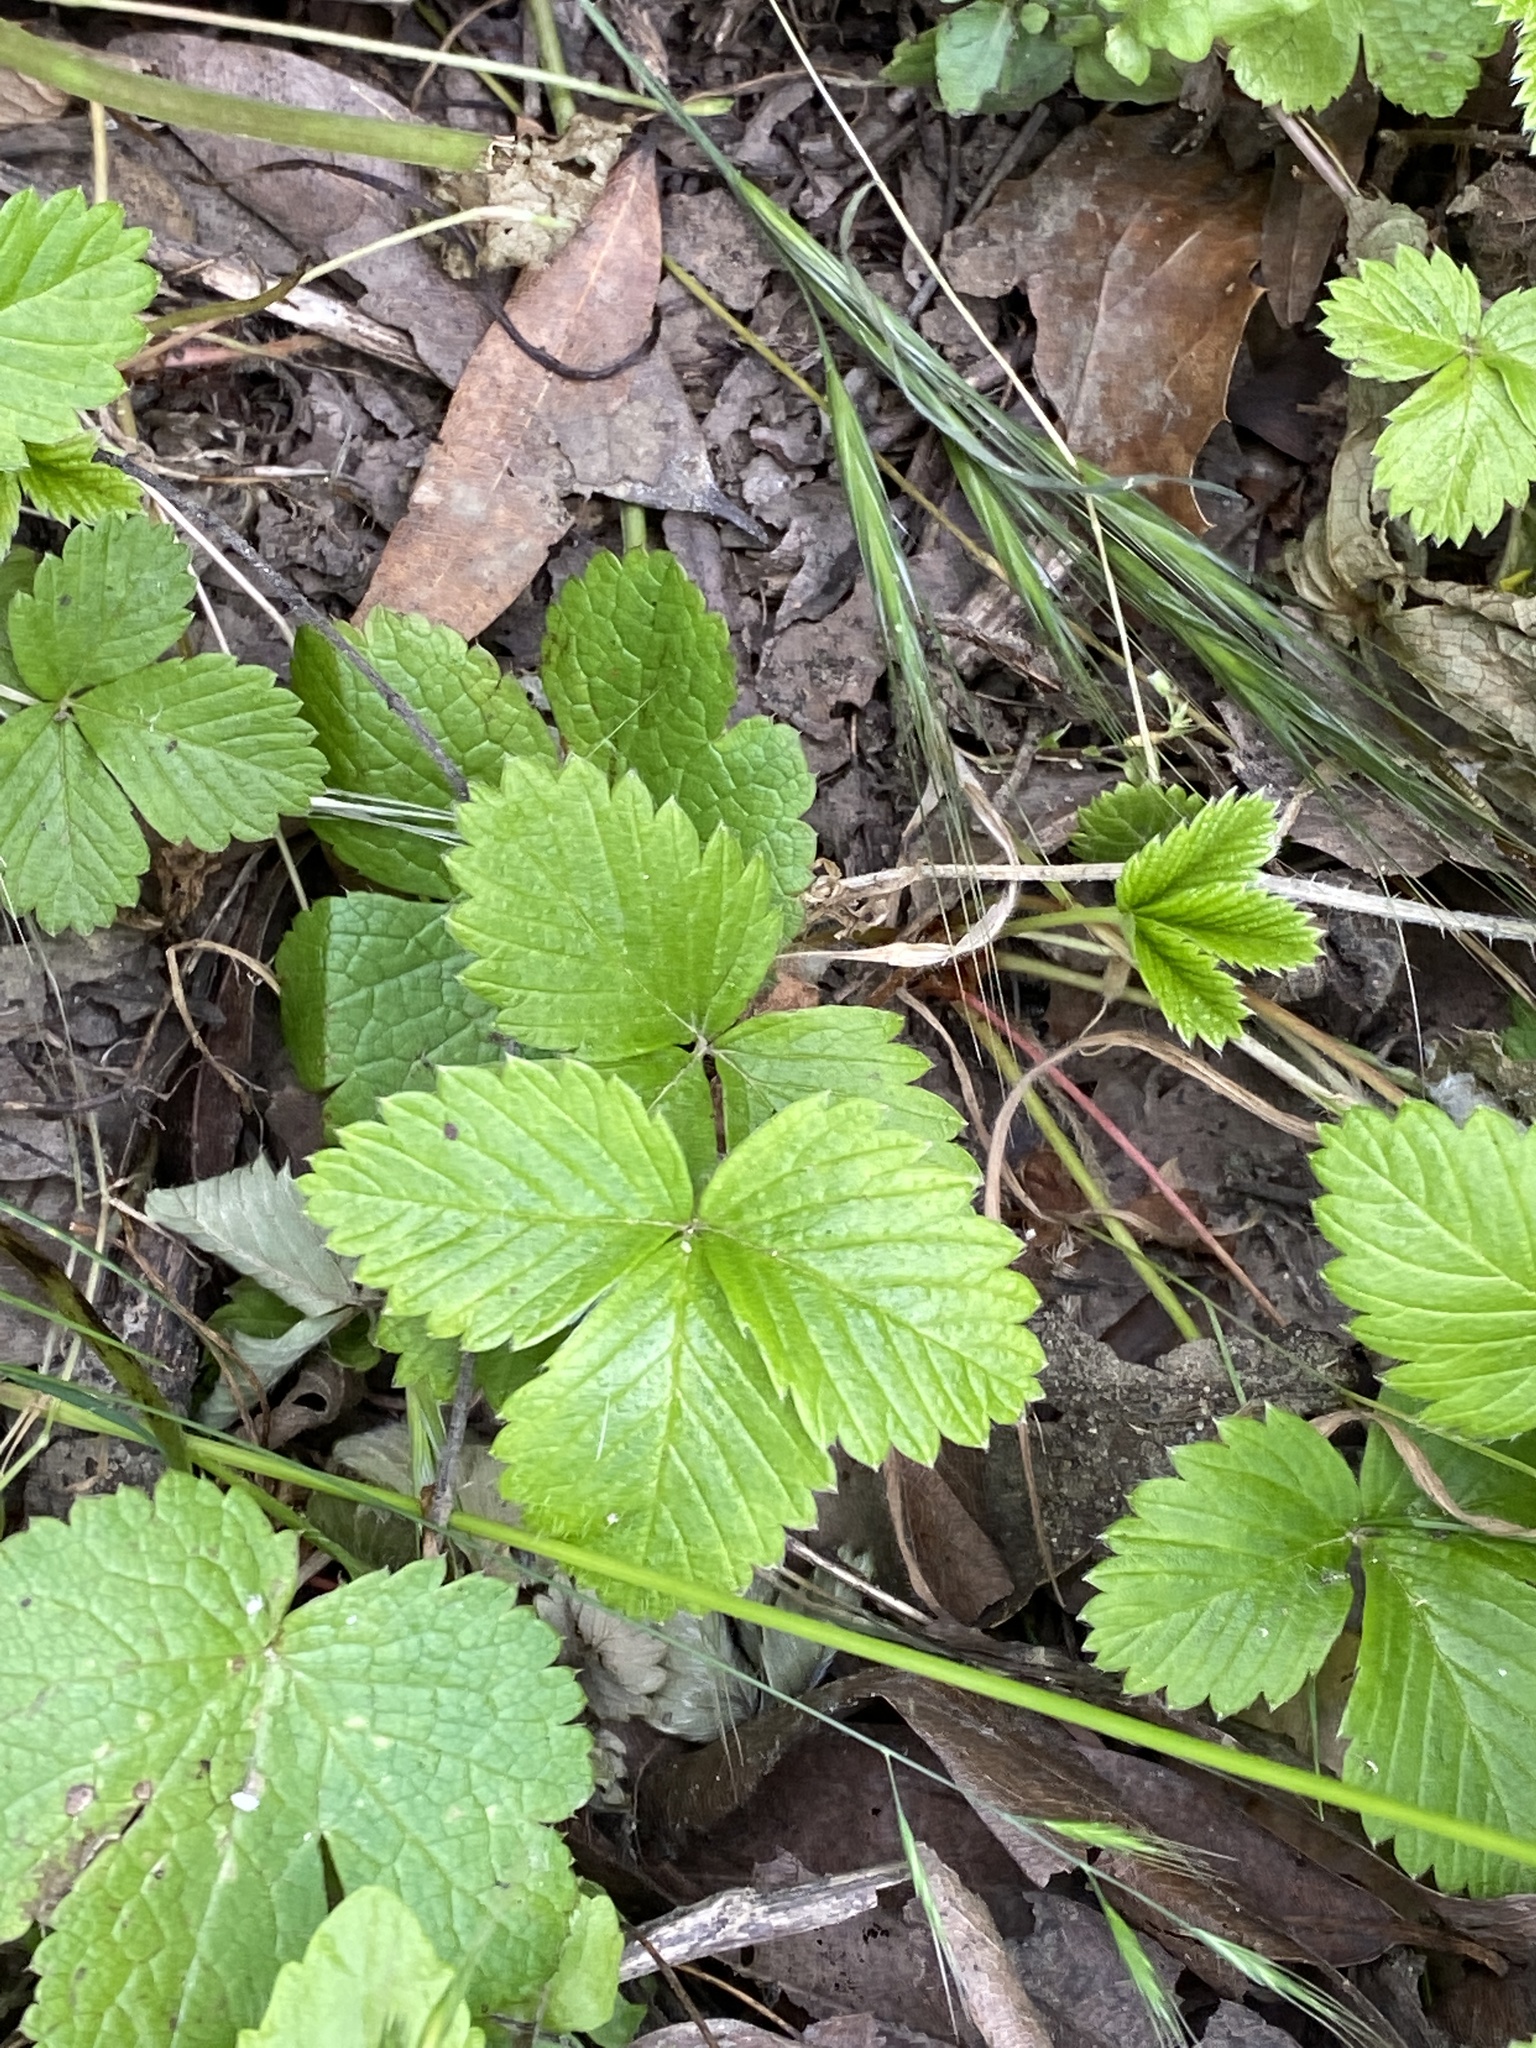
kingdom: Plantae
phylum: Tracheophyta
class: Magnoliopsida
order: Rosales
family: Rosaceae
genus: Fragaria
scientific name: Fragaria vesca
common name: Wild strawberry
